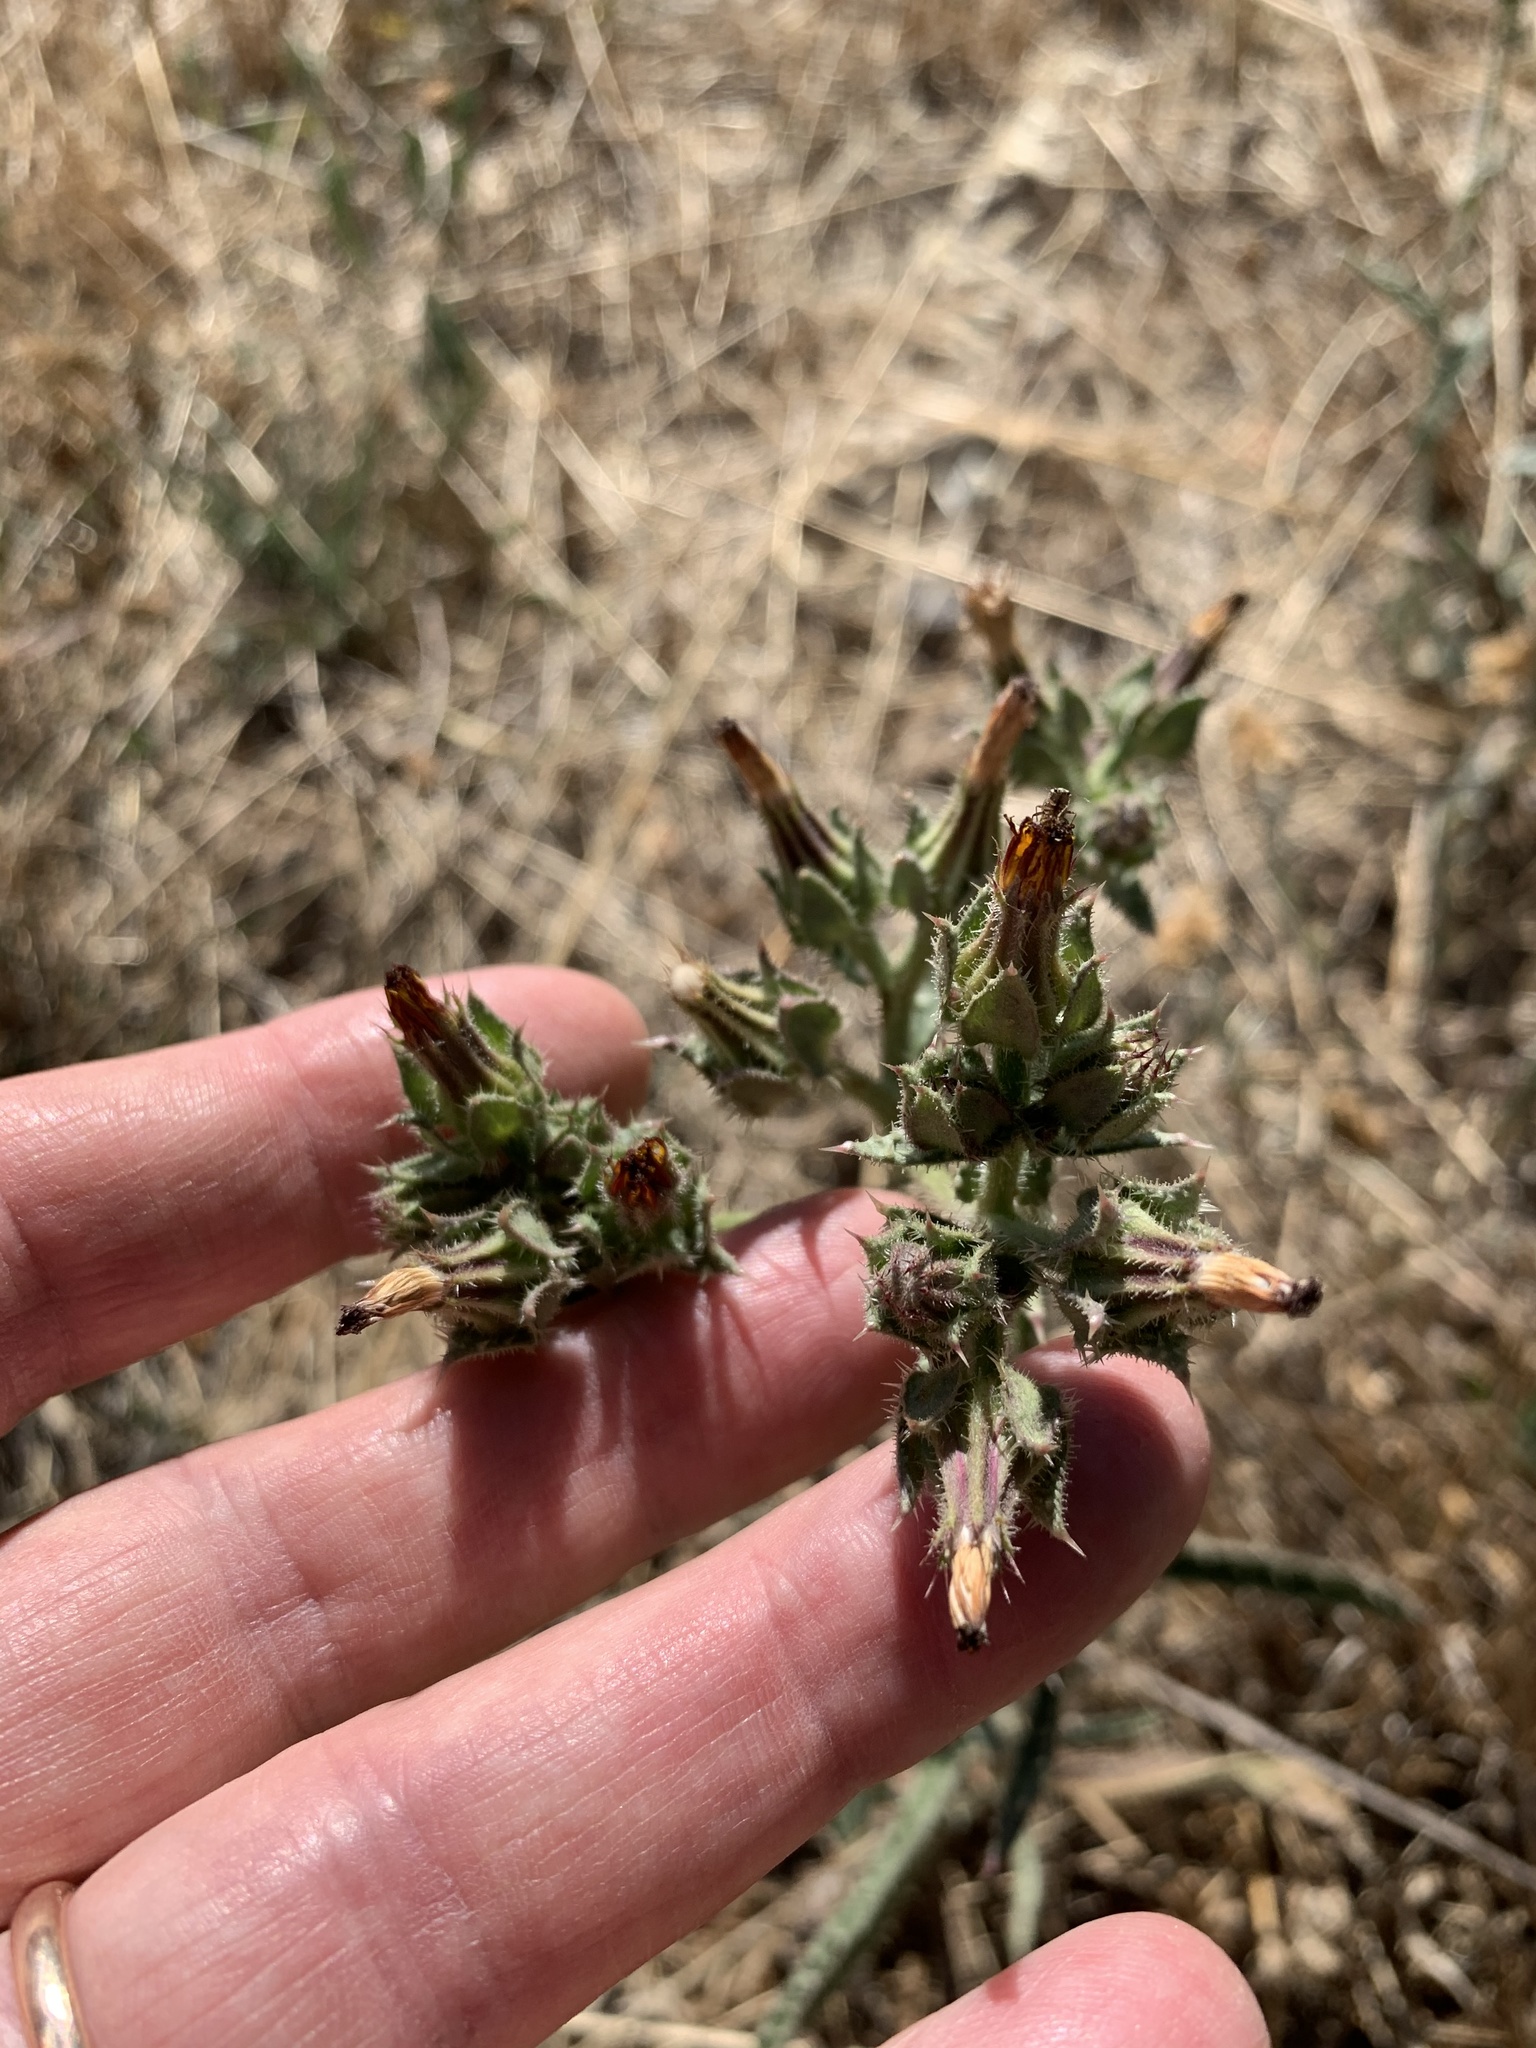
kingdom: Plantae
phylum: Tracheophyta
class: Magnoliopsida
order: Asterales
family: Asteraceae
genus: Helminthotheca
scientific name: Helminthotheca echioides
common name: Ox-tongue
